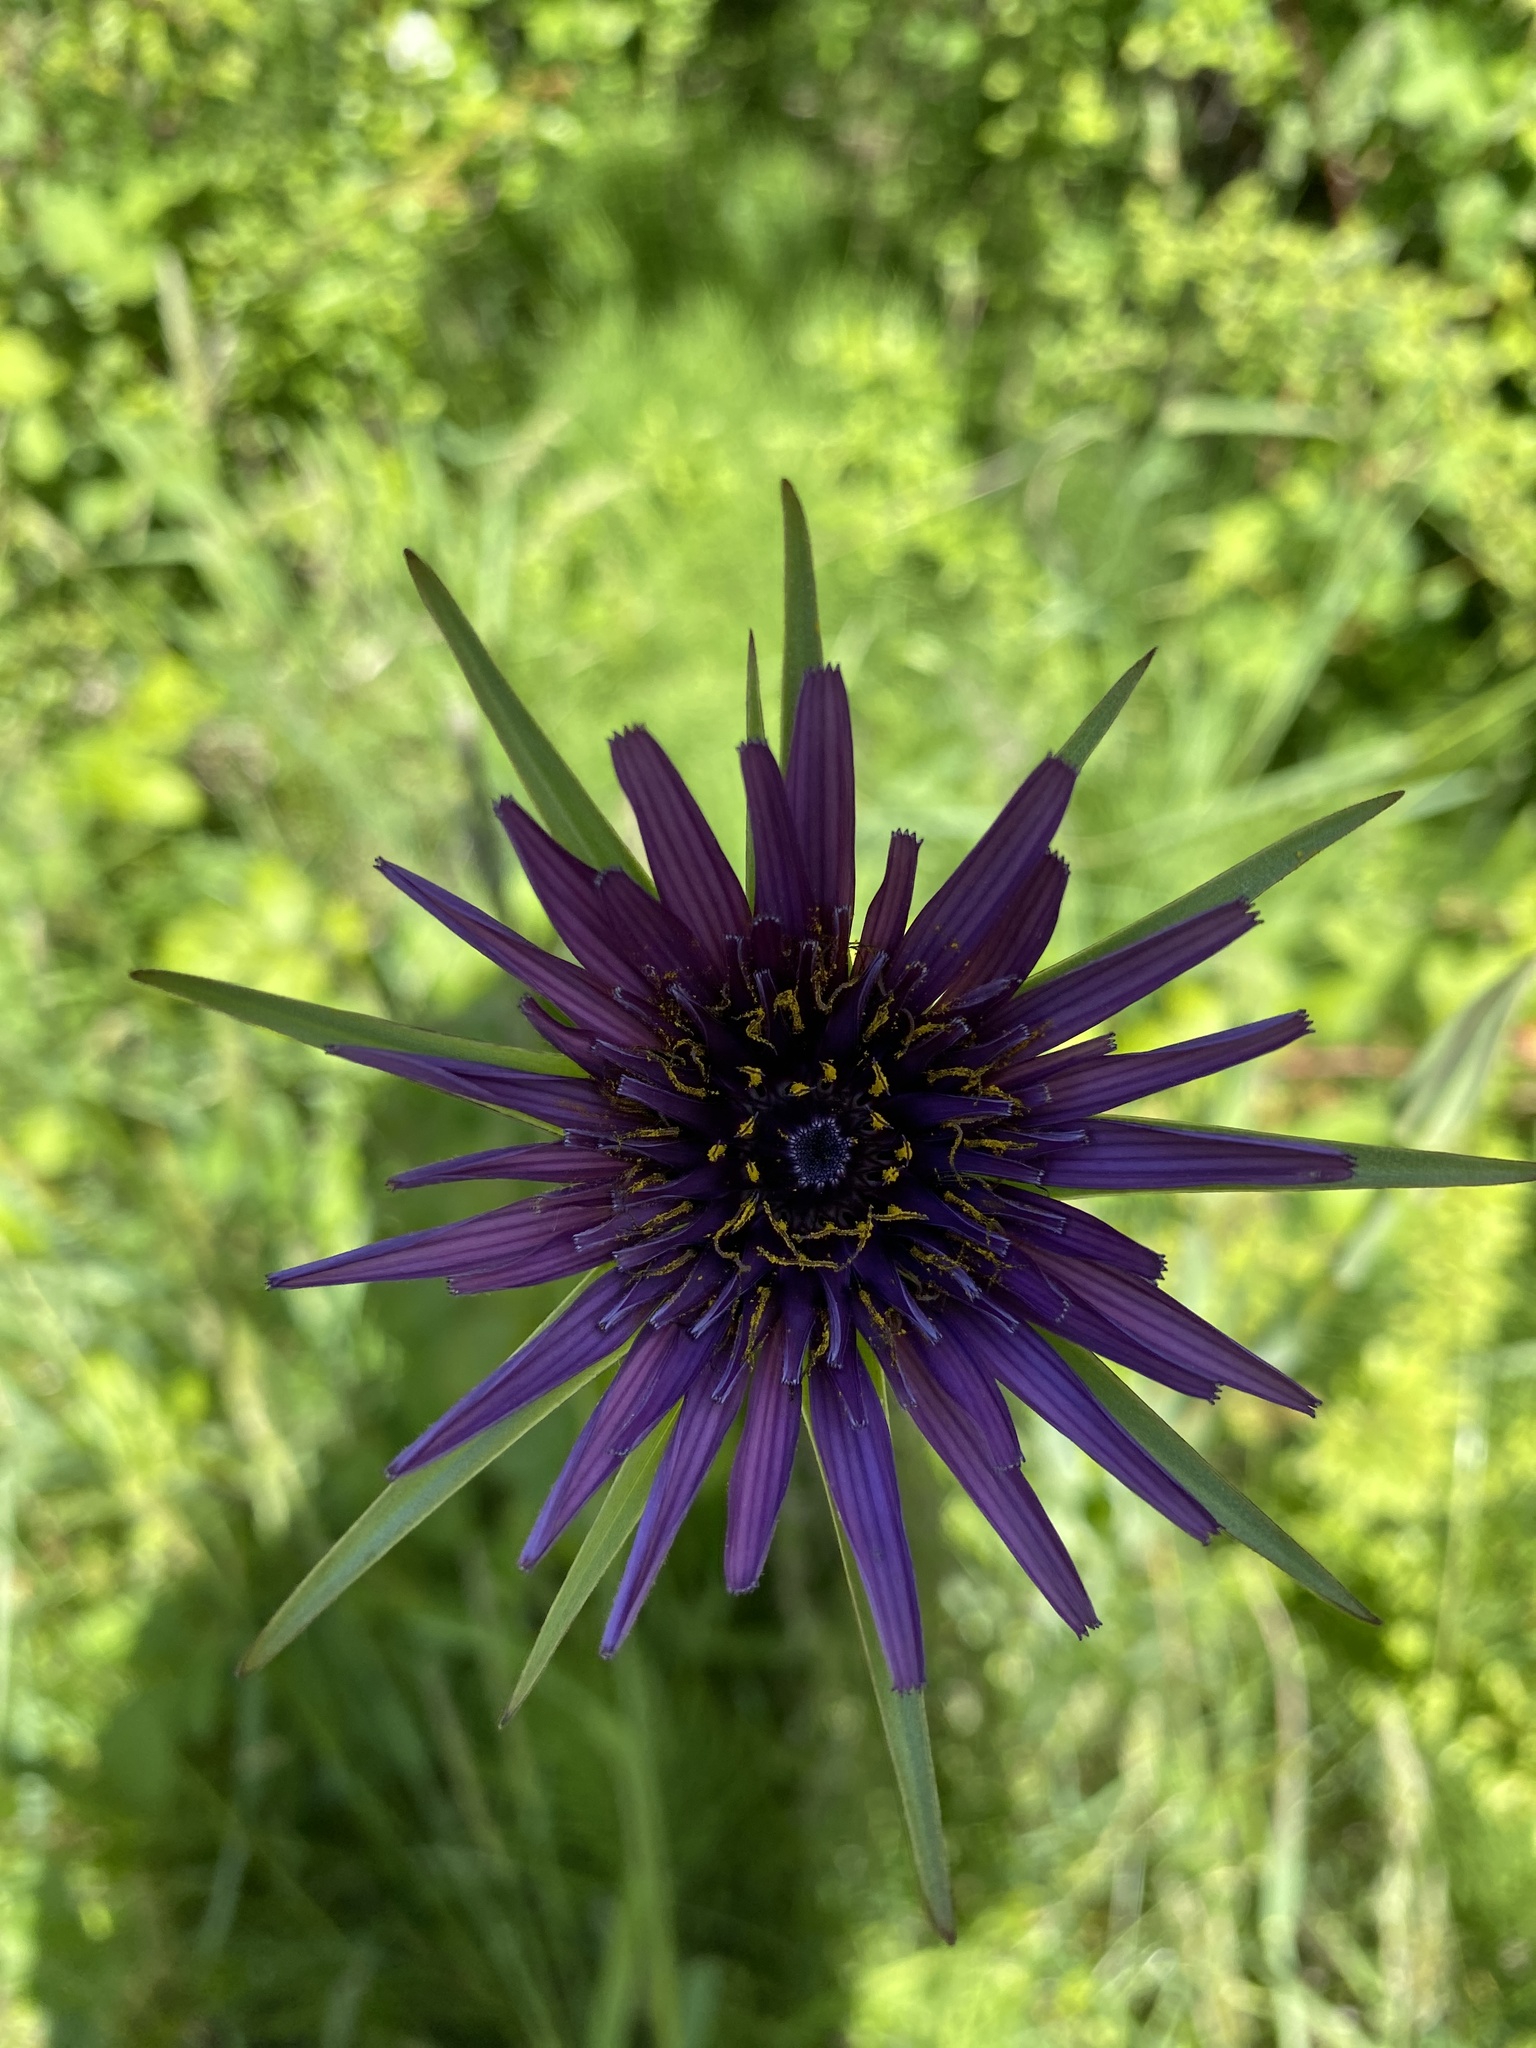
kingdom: Plantae
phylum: Tracheophyta
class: Magnoliopsida
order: Asterales
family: Asteraceae
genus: Tragopogon
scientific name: Tragopogon porrifolius
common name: Salsify
